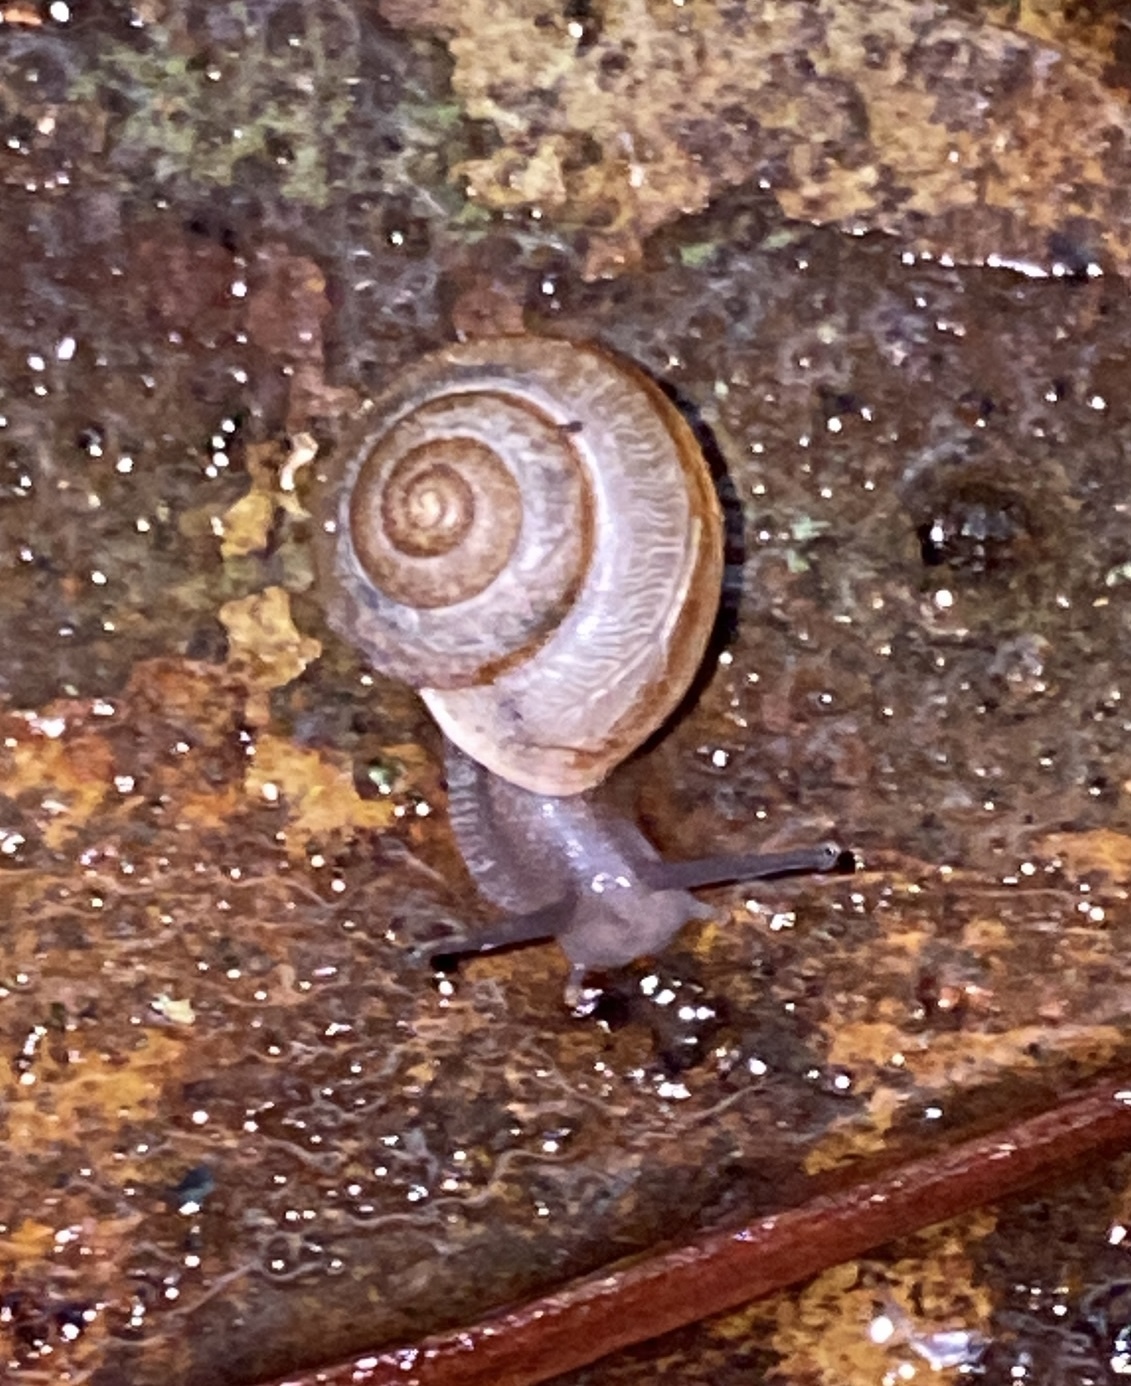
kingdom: Animalia
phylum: Mollusca
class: Gastropoda
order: Stylommatophora
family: Camaenidae
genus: Bradybaena
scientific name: Bradybaena similaris
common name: Asian trampsnail
